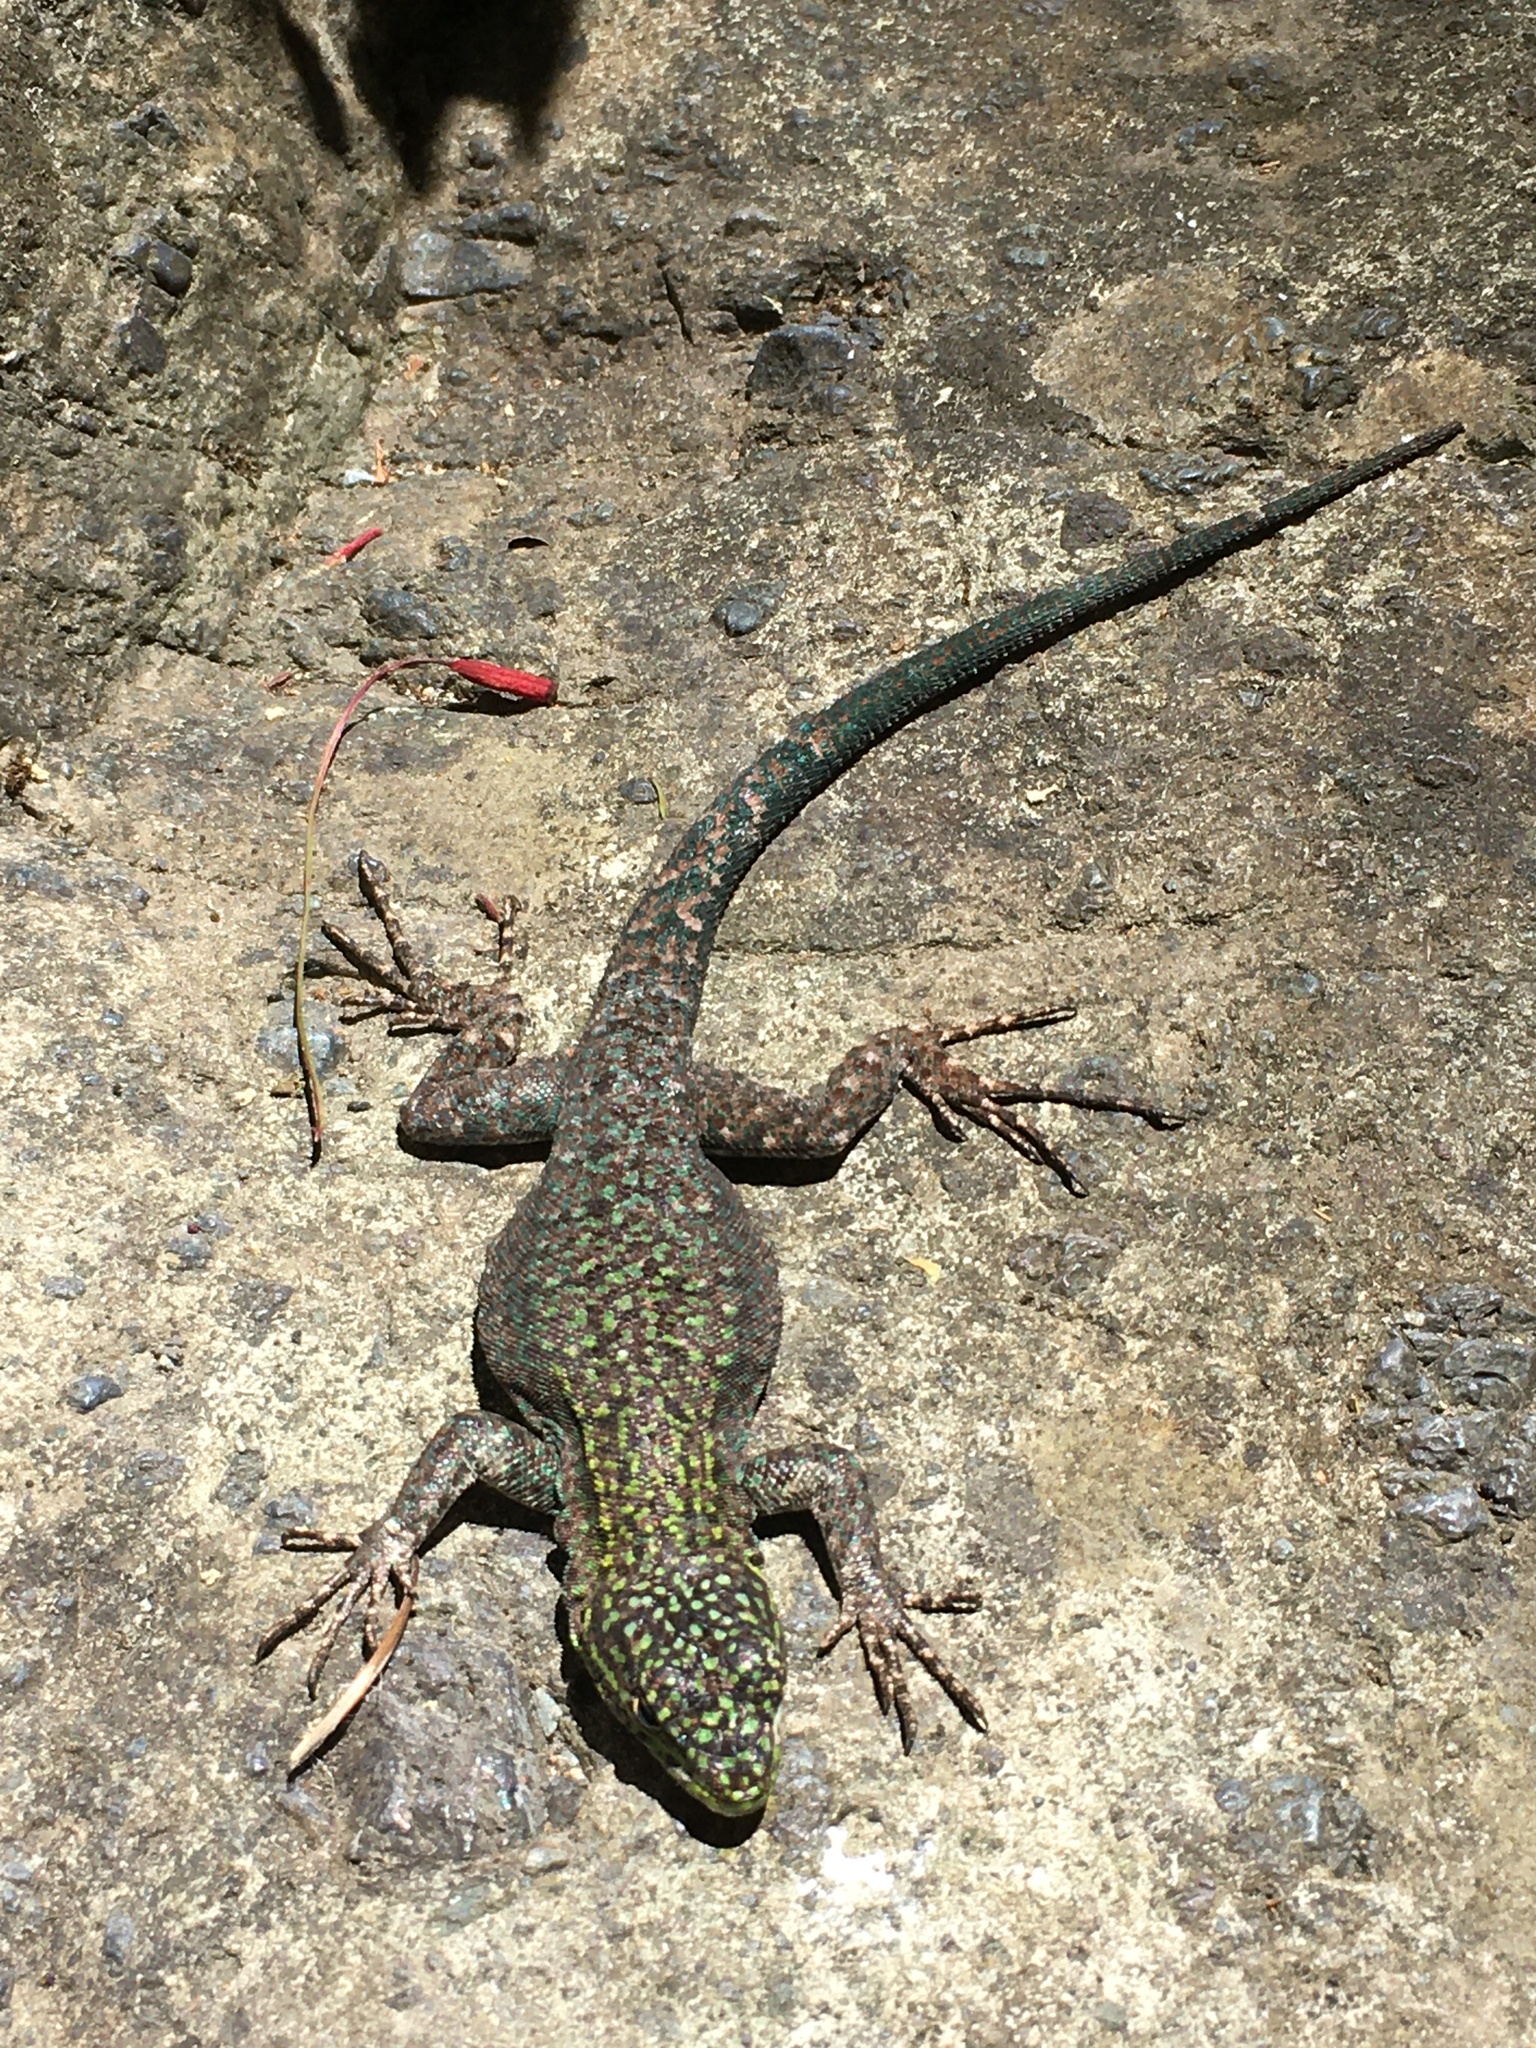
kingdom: Animalia
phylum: Chordata
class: Squamata
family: Liolaemidae
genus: Liolaemus
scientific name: Liolaemus tenuis
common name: Thin tree iguana
